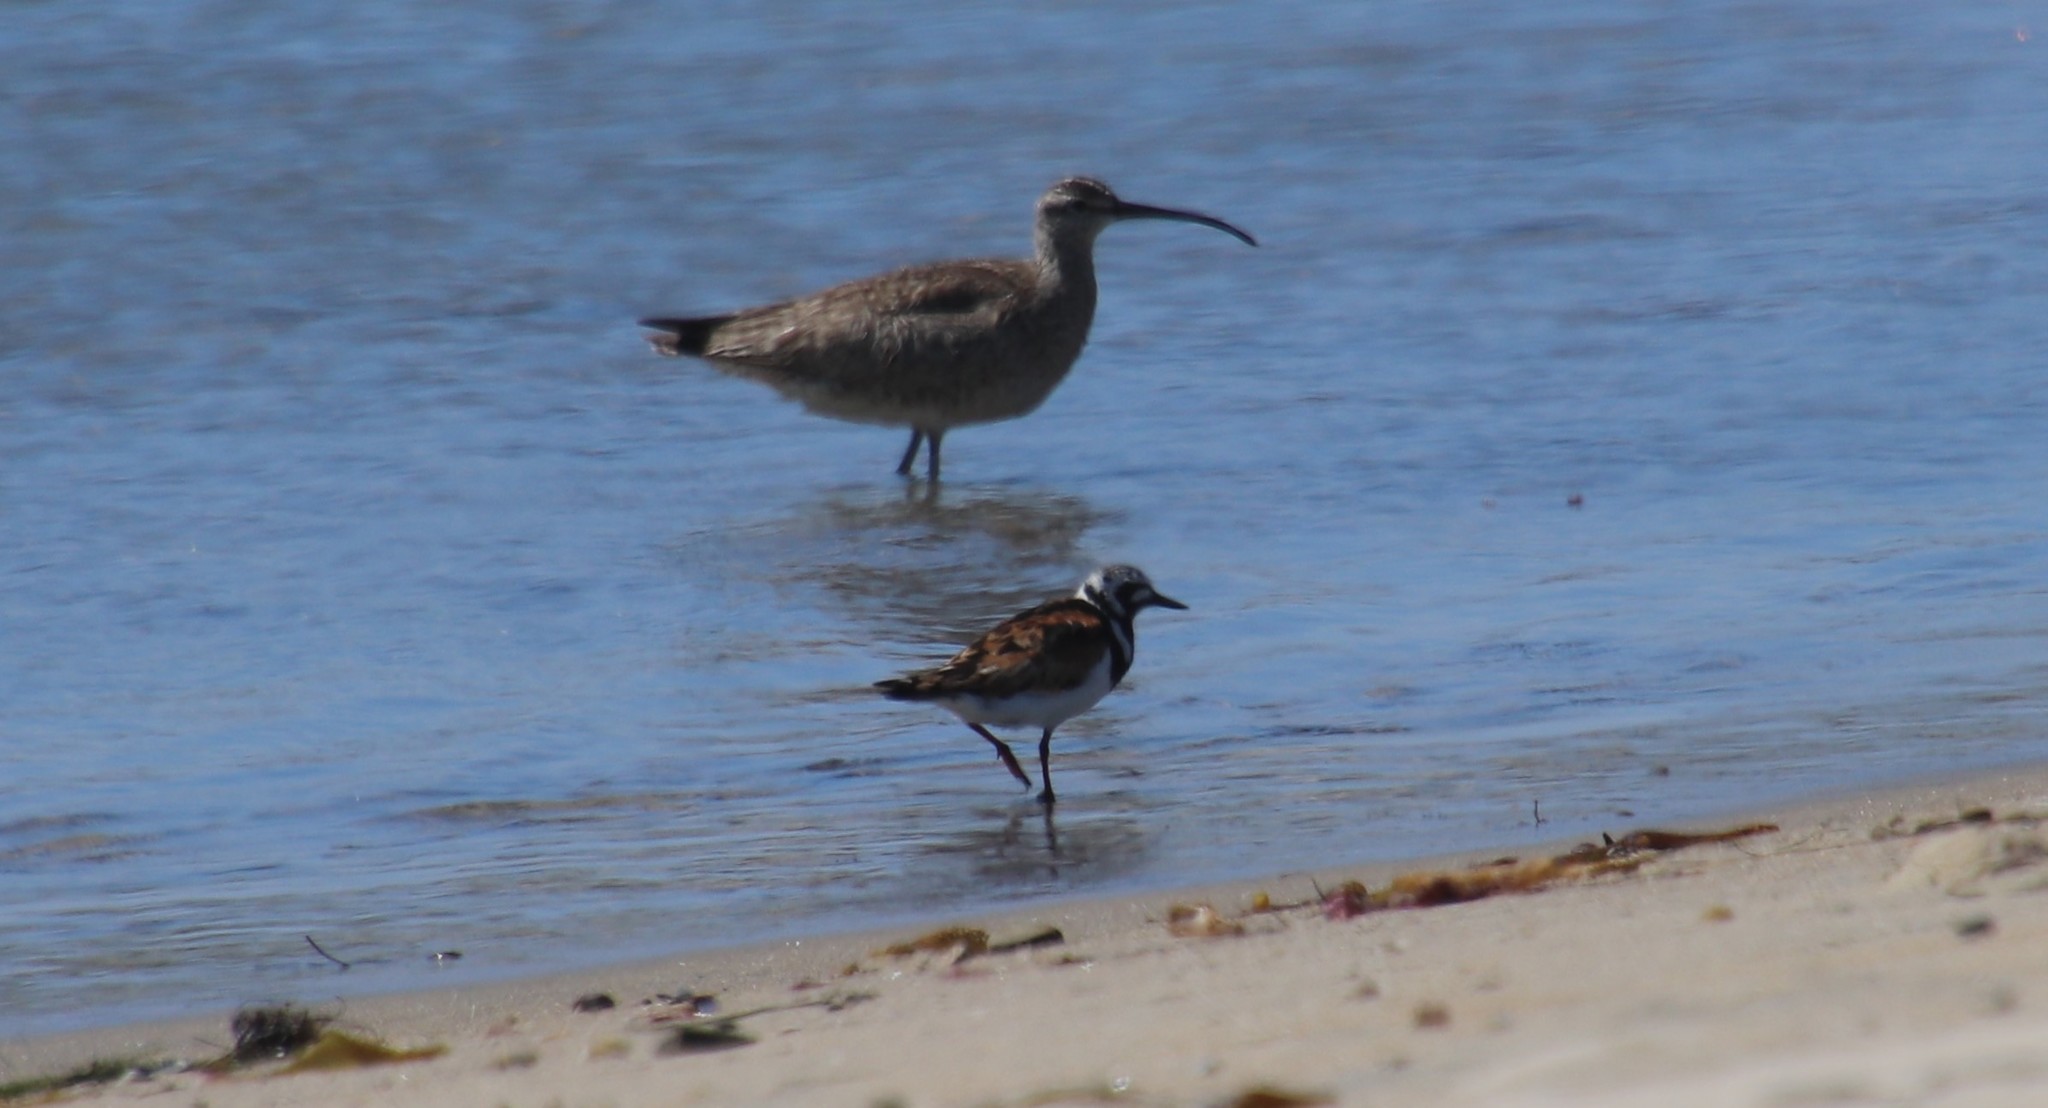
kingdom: Animalia
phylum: Chordata
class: Aves
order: Charadriiformes
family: Scolopacidae
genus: Numenius
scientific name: Numenius phaeopus
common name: Whimbrel
